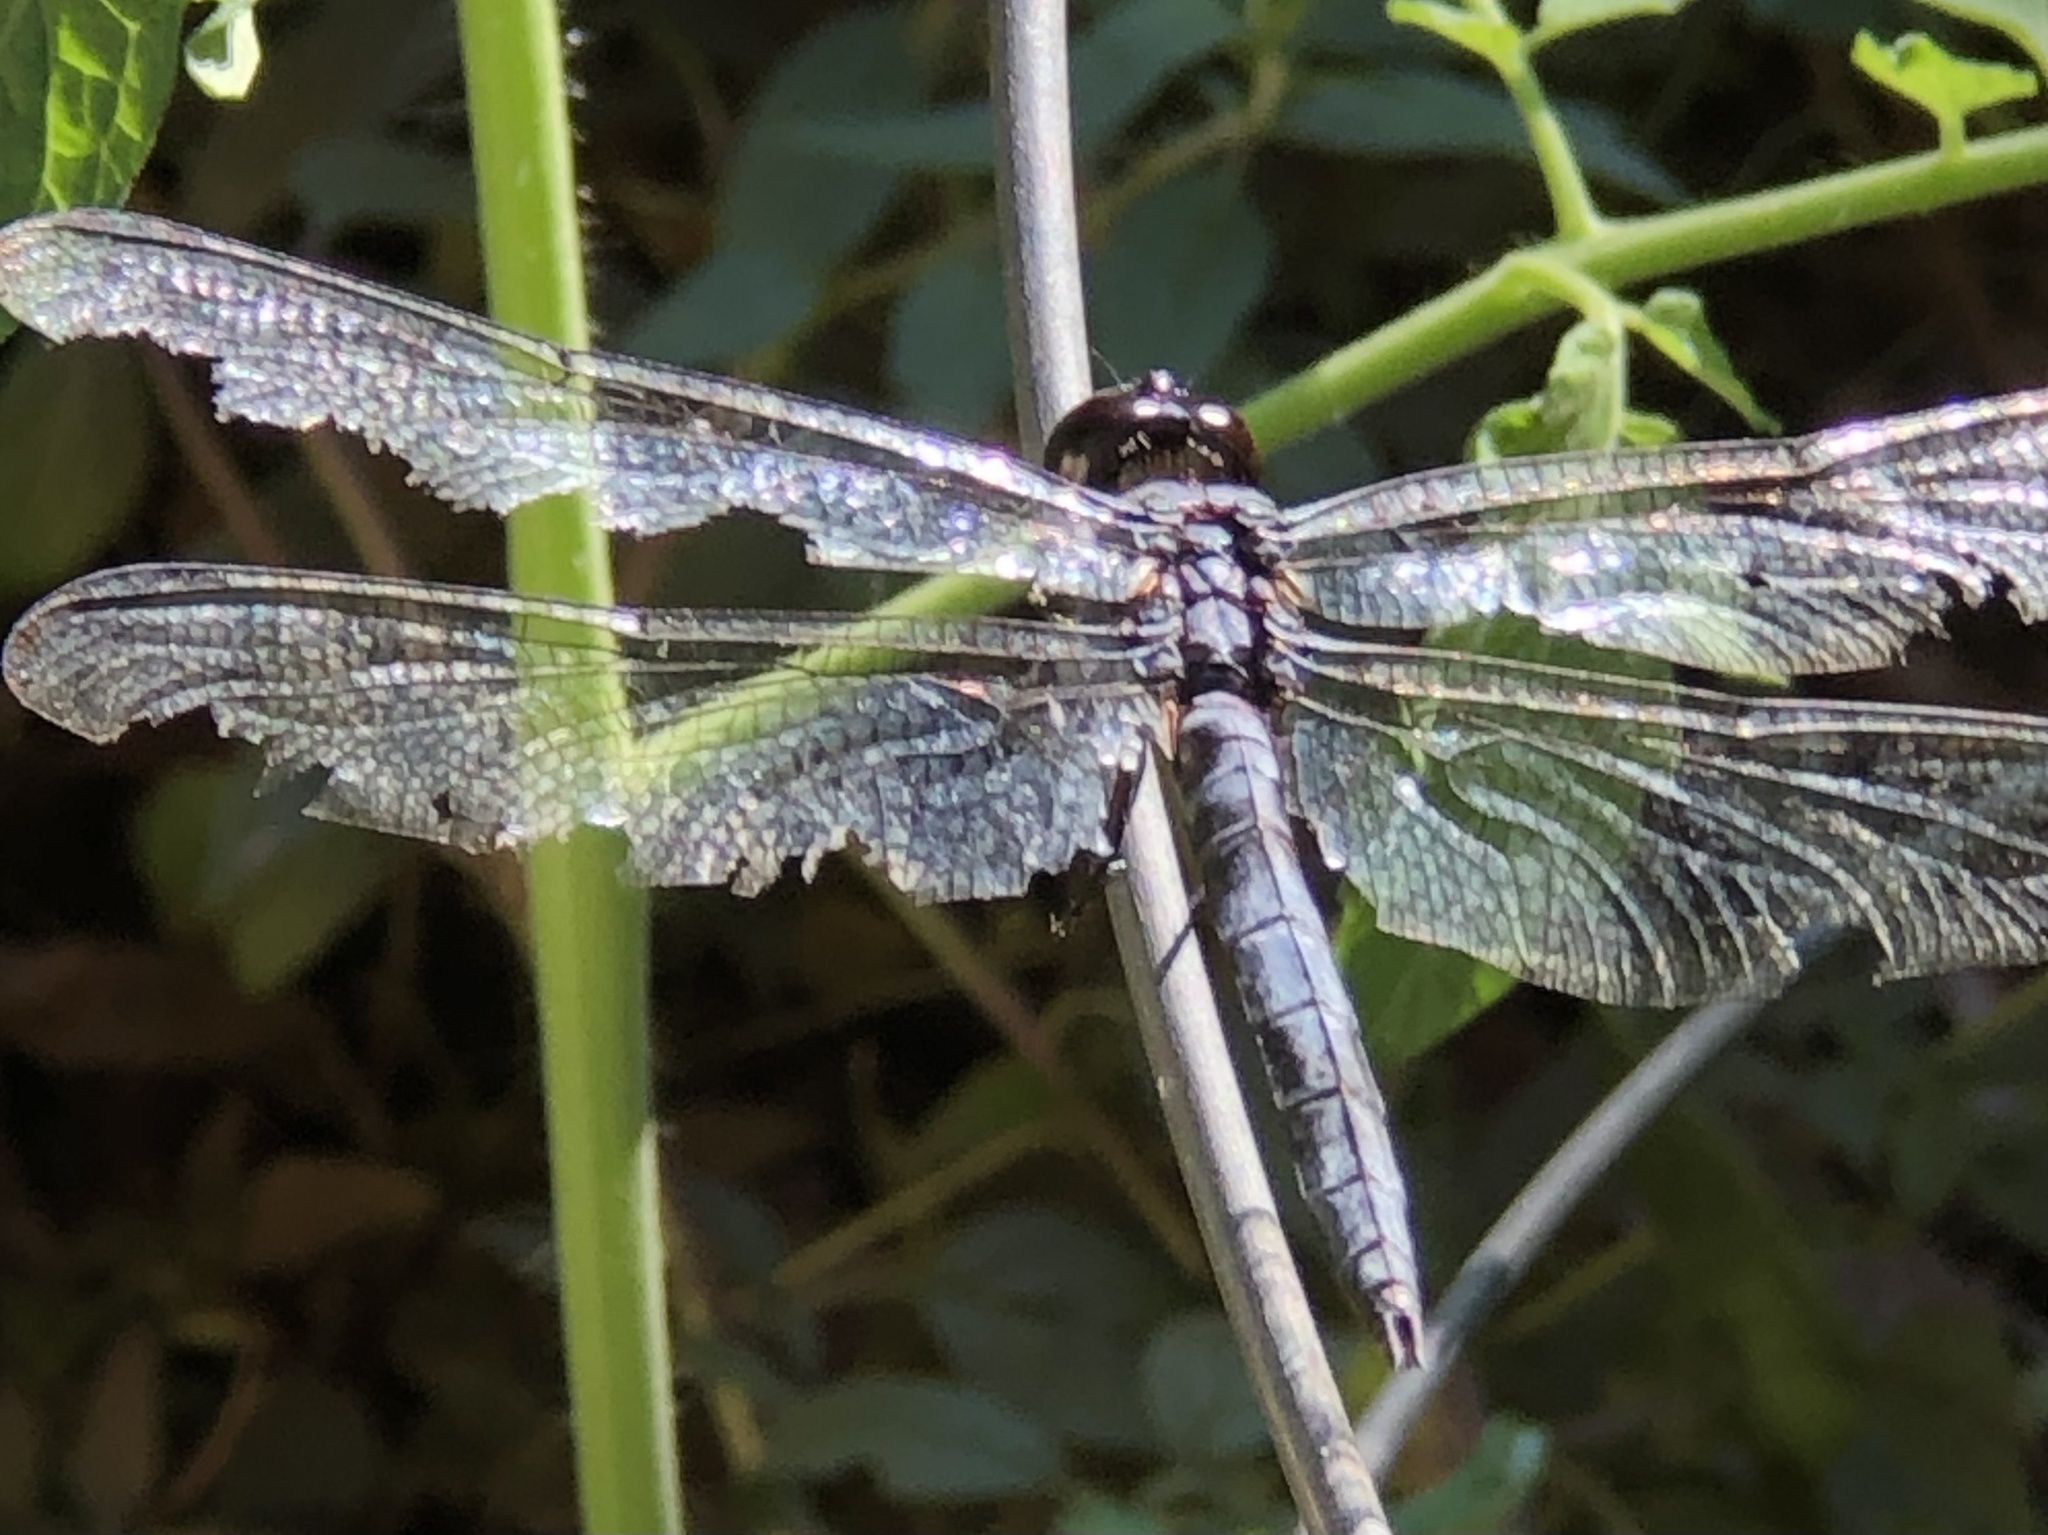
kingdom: Animalia
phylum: Arthropoda
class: Insecta
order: Odonata
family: Libellulidae
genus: Libellula
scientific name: Libellula incesta
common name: Slaty skimmer
